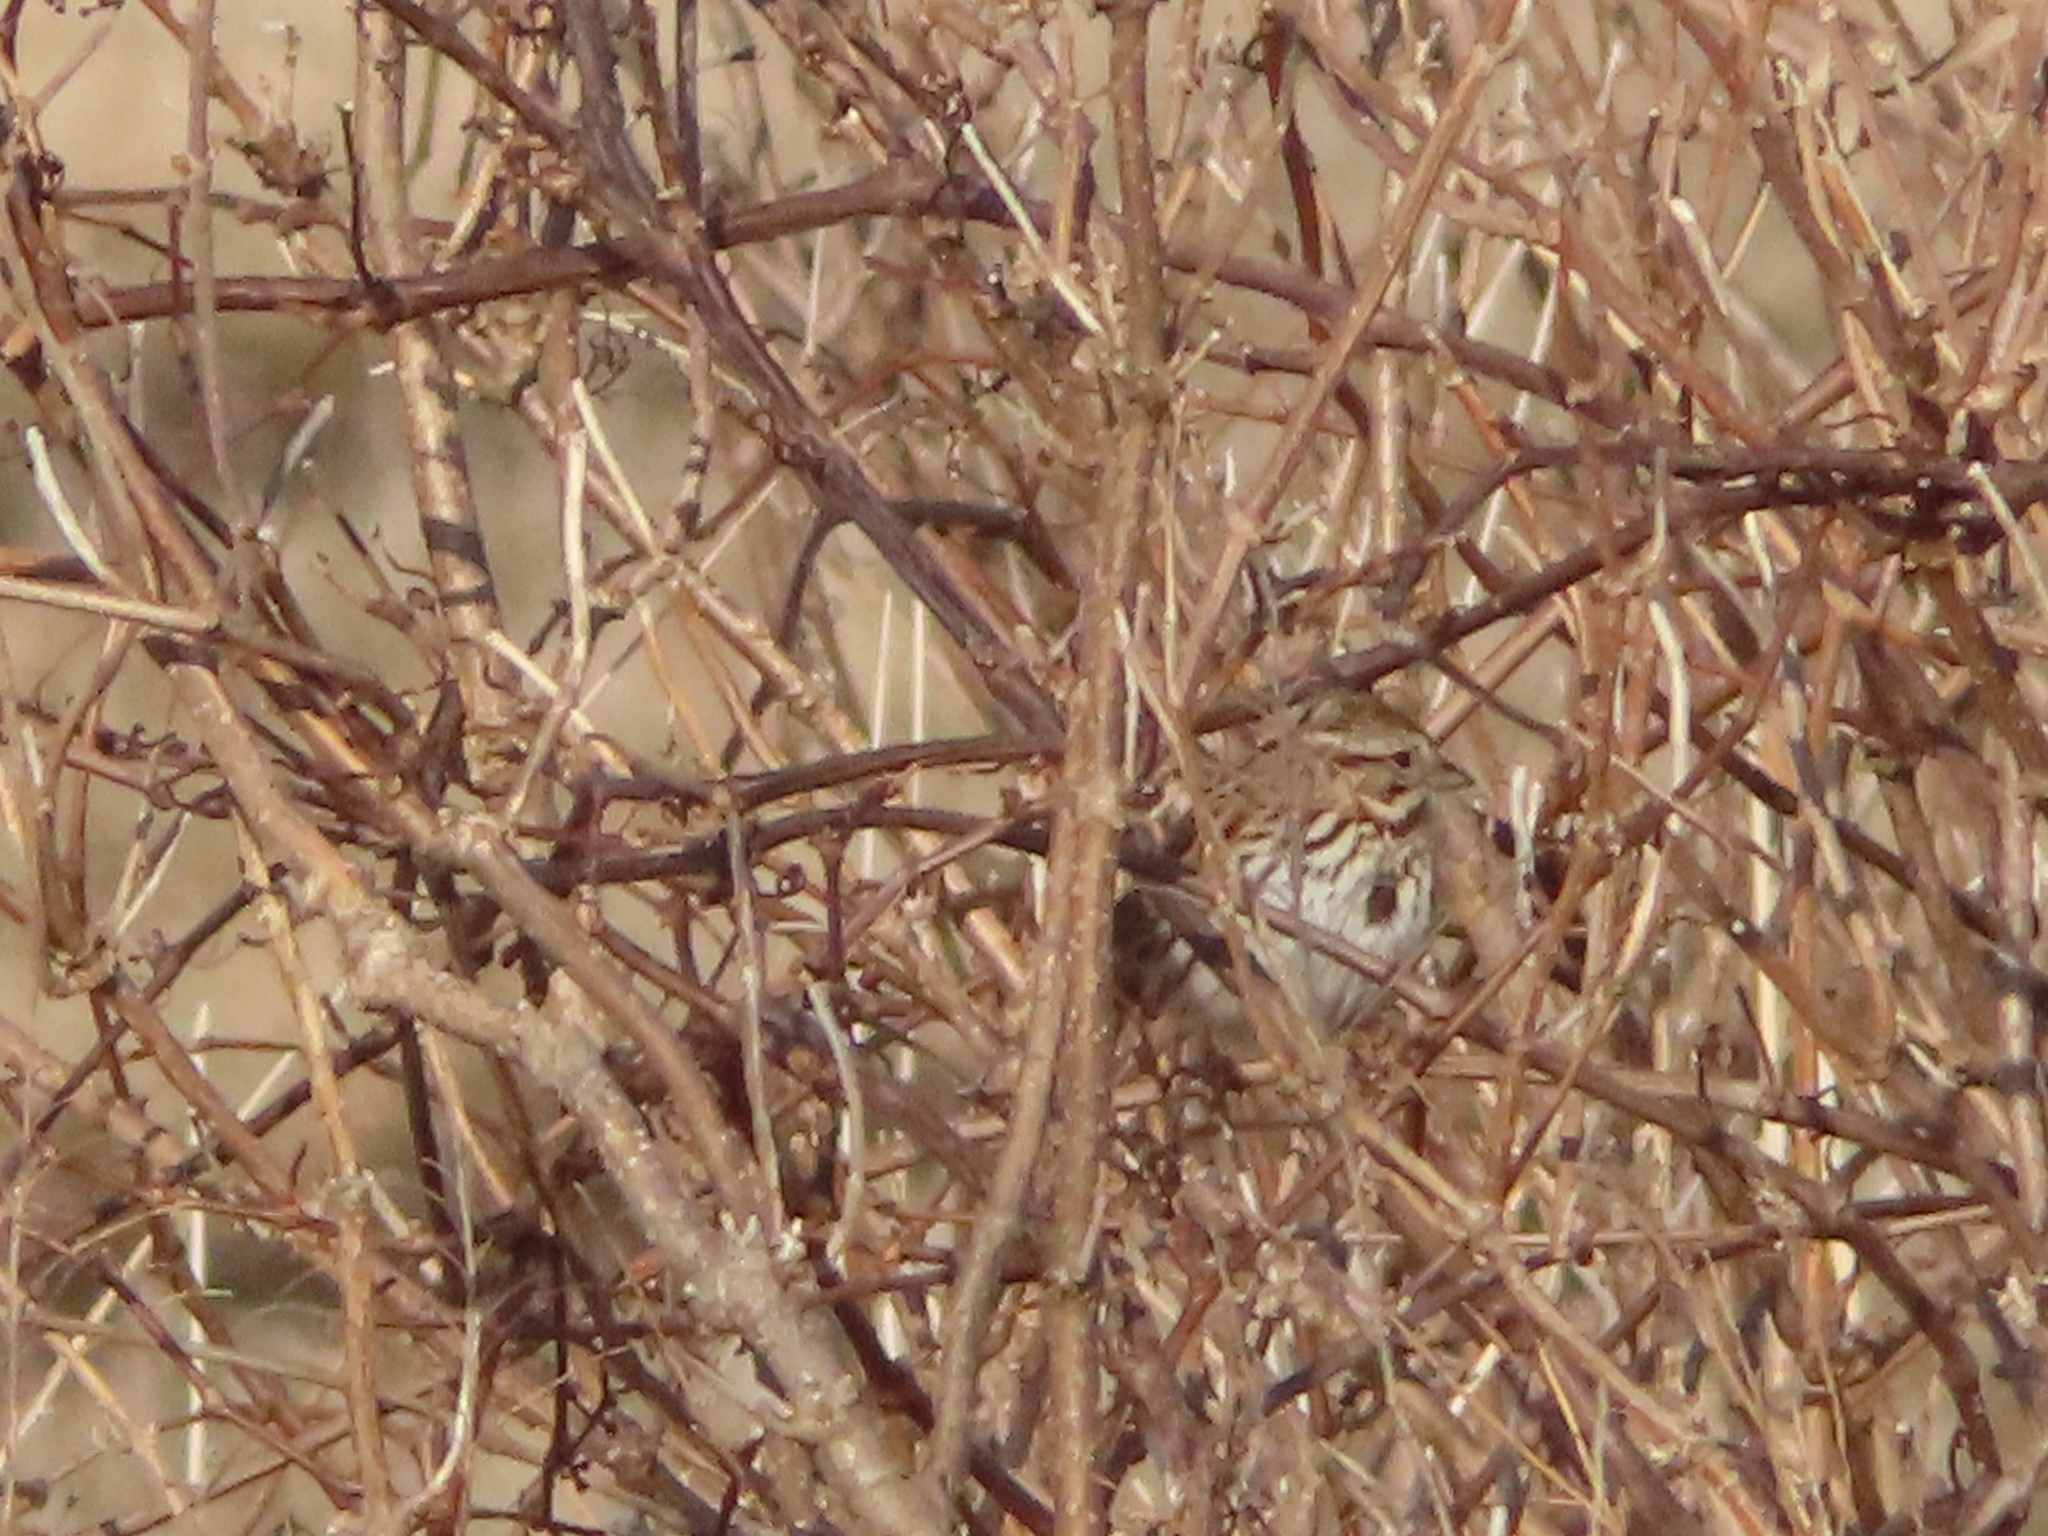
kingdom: Animalia
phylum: Chordata
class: Aves
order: Passeriformes
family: Passerellidae
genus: Melospiza
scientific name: Melospiza melodia
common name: Song sparrow
